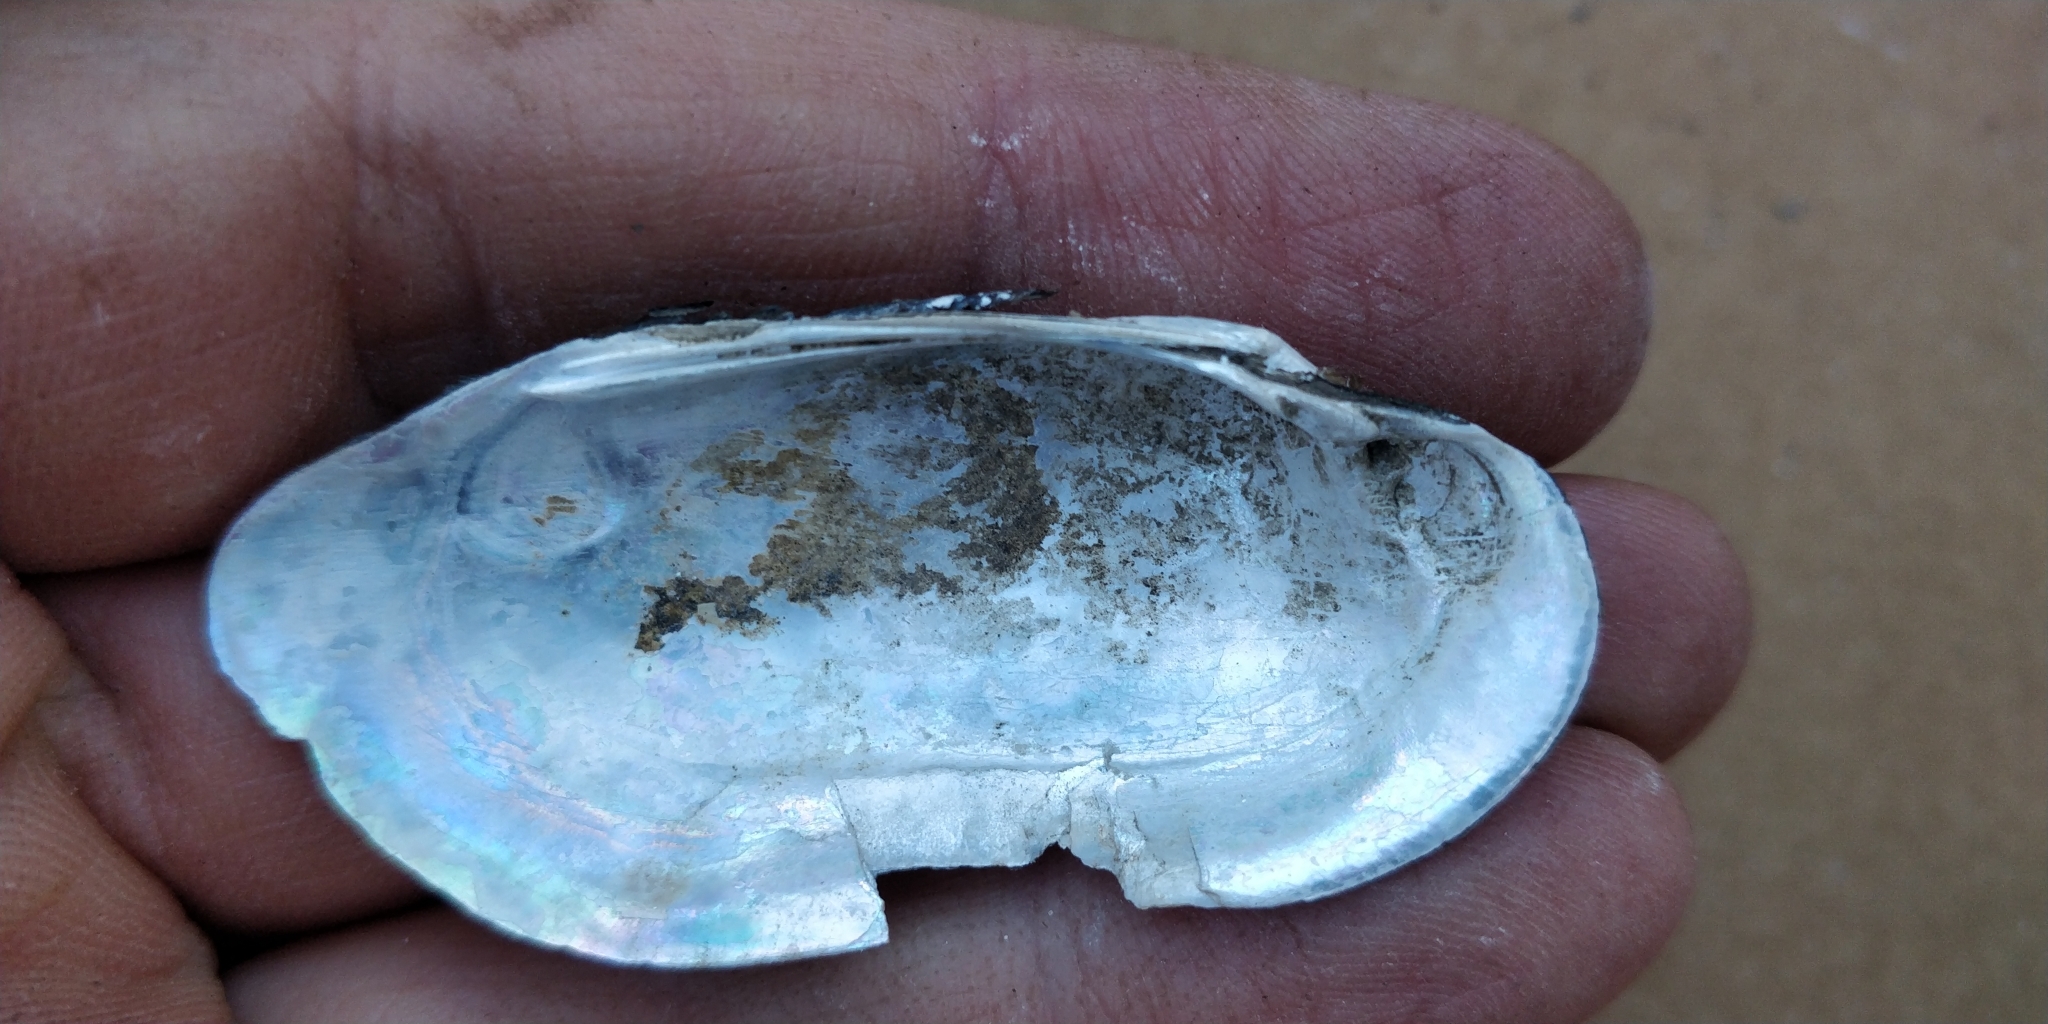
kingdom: Animalia
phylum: Mollusca
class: Bivalvia
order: Unionida
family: Unionidae
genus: Lampsilis
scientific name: Lampsilis teres
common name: Yellow sandshell
